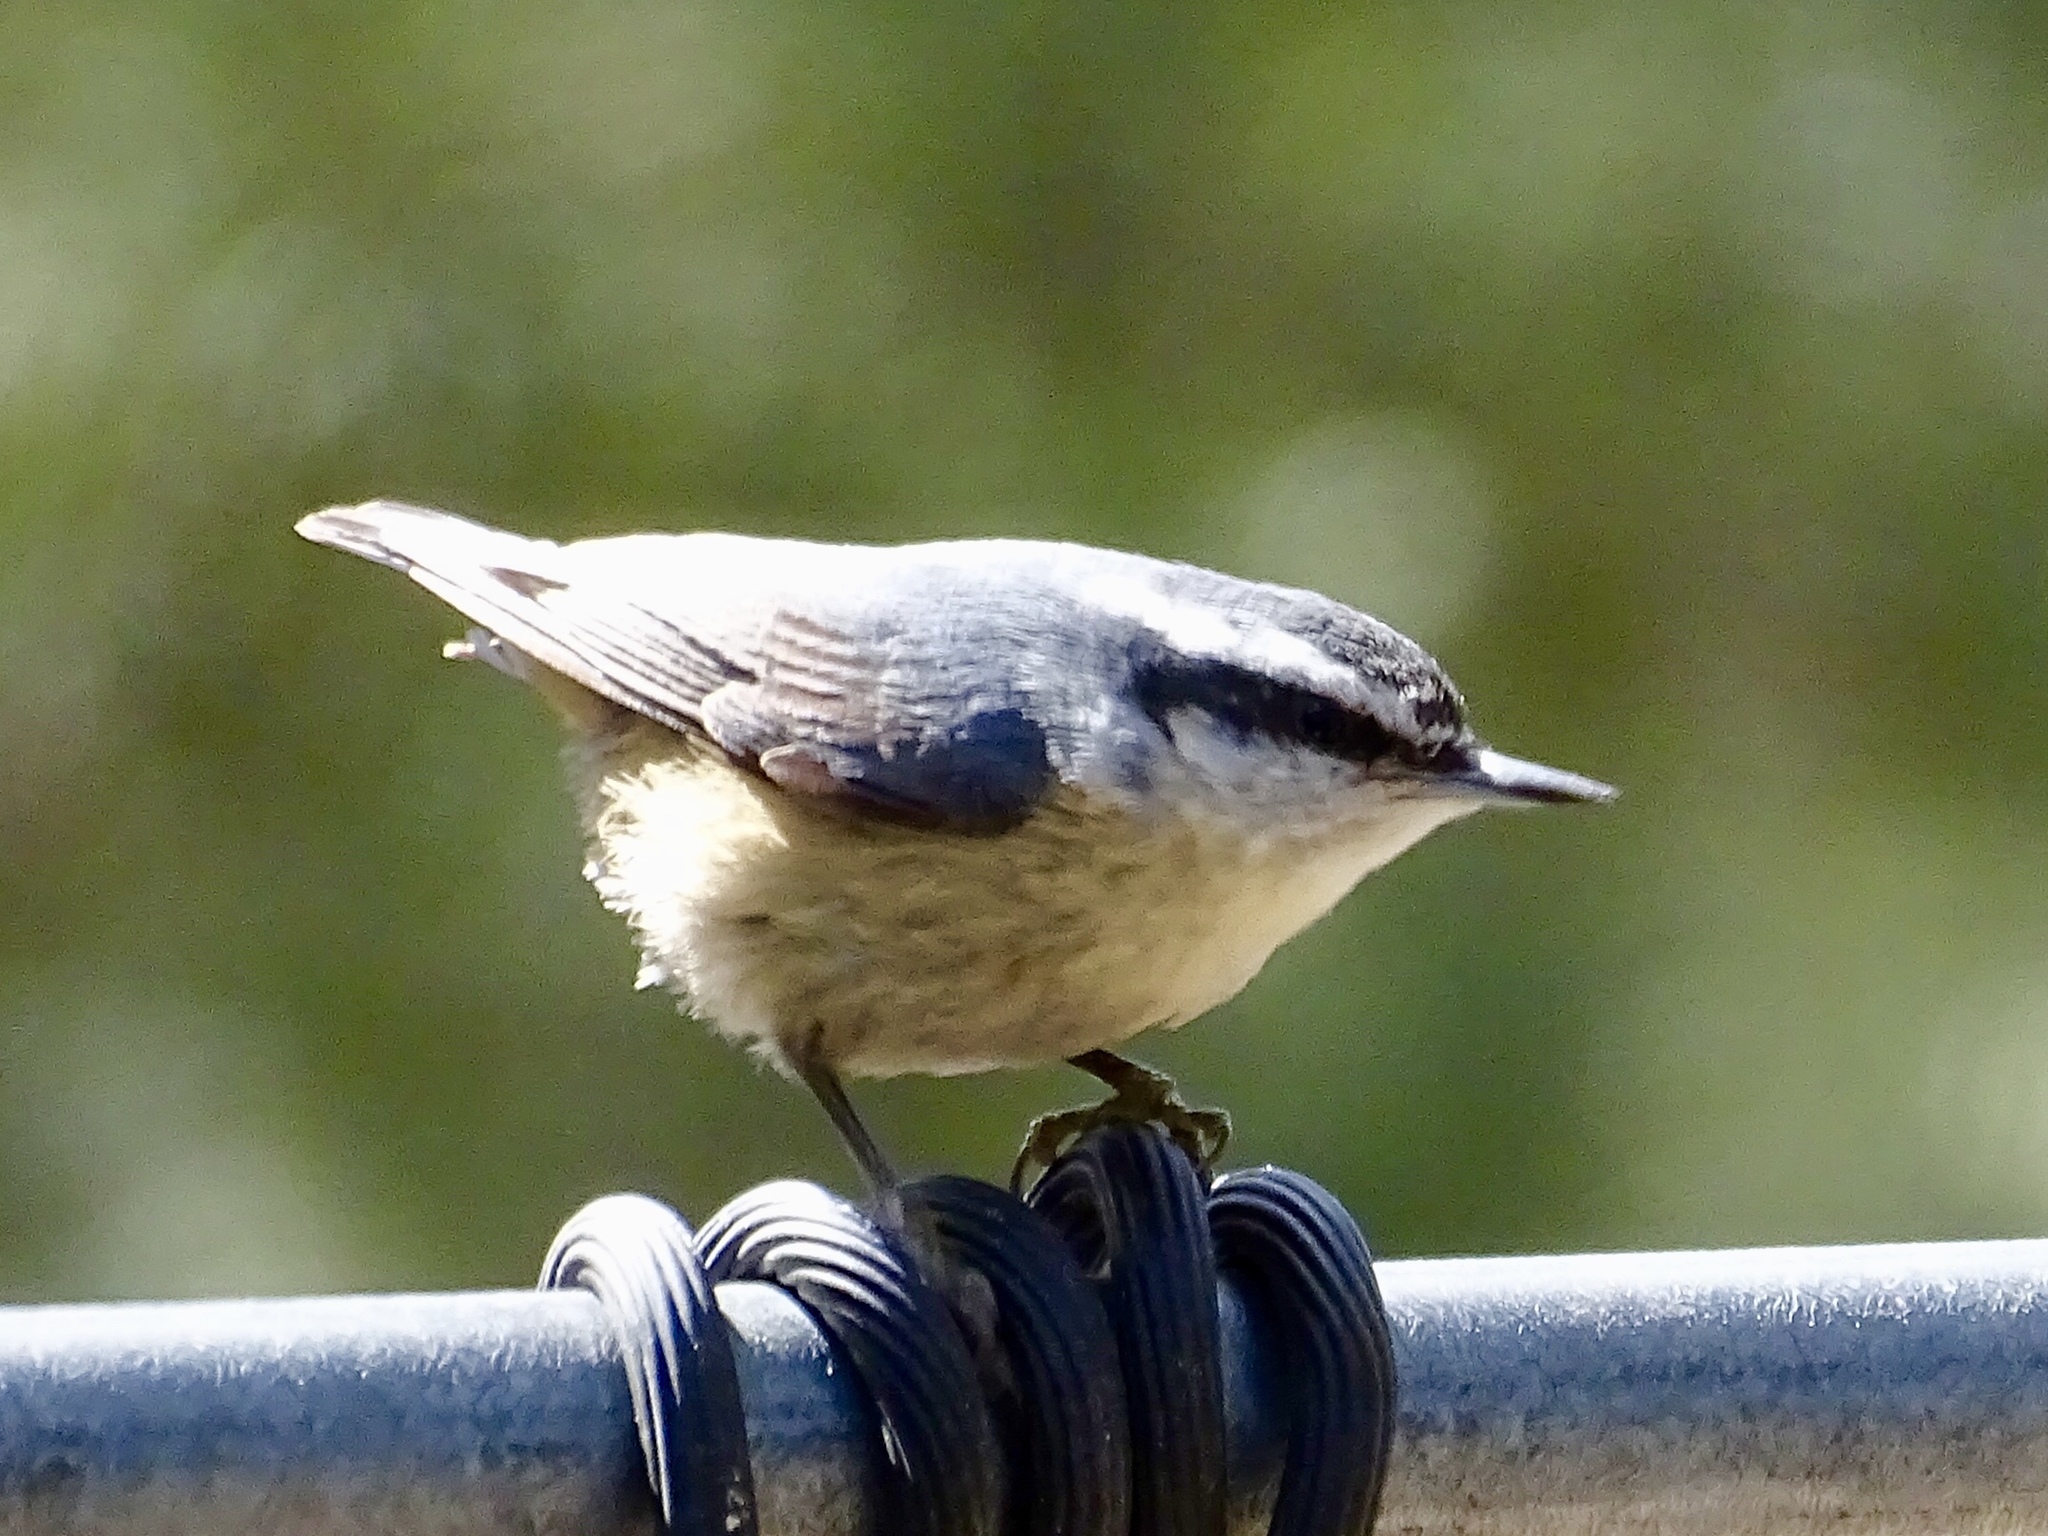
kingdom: Animalia
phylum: Chordata
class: Aves
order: Passeriformes
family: Sittidae
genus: Sitta
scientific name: Sitta canadensis
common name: Red-breasted nuthatch
